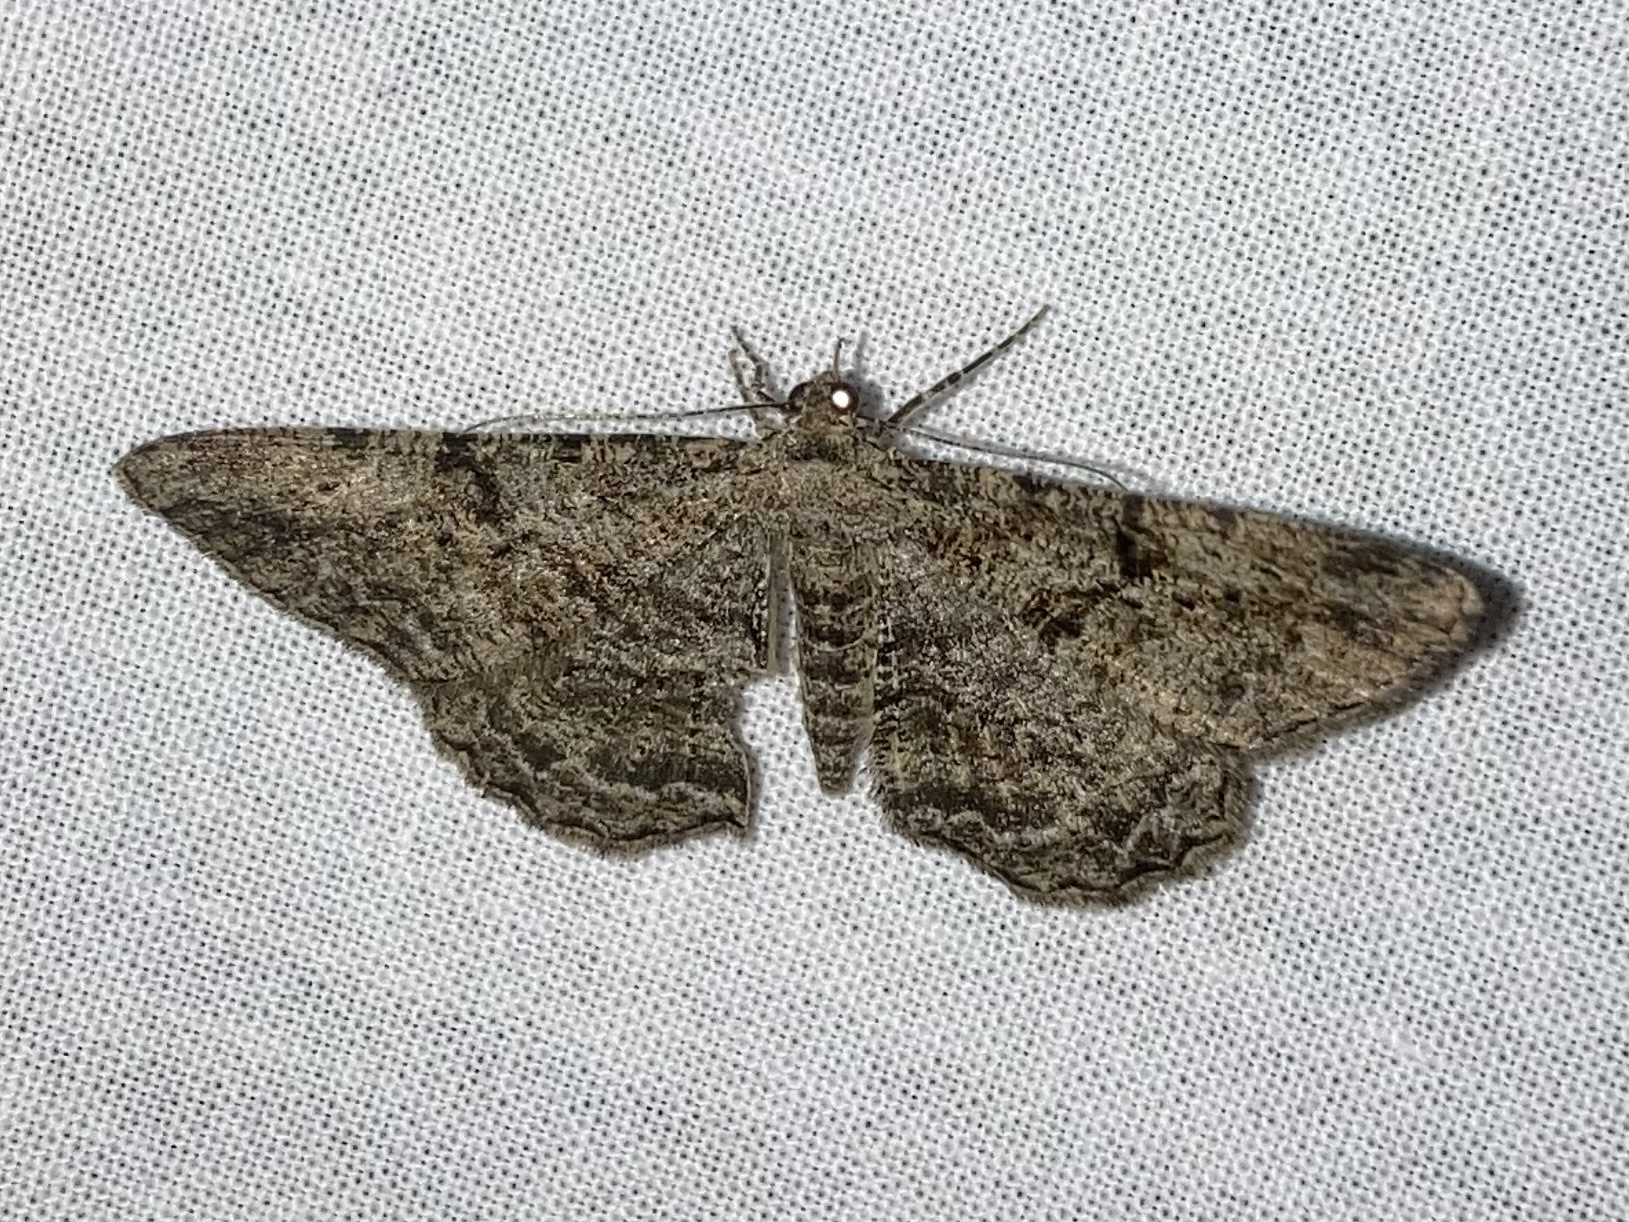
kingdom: Animalia
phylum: Arthropoda
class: Insecta
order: Lepidoptera
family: Geometridae
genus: Peribatodes
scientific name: Peribatodes rhomboidaria
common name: Willow beauty
